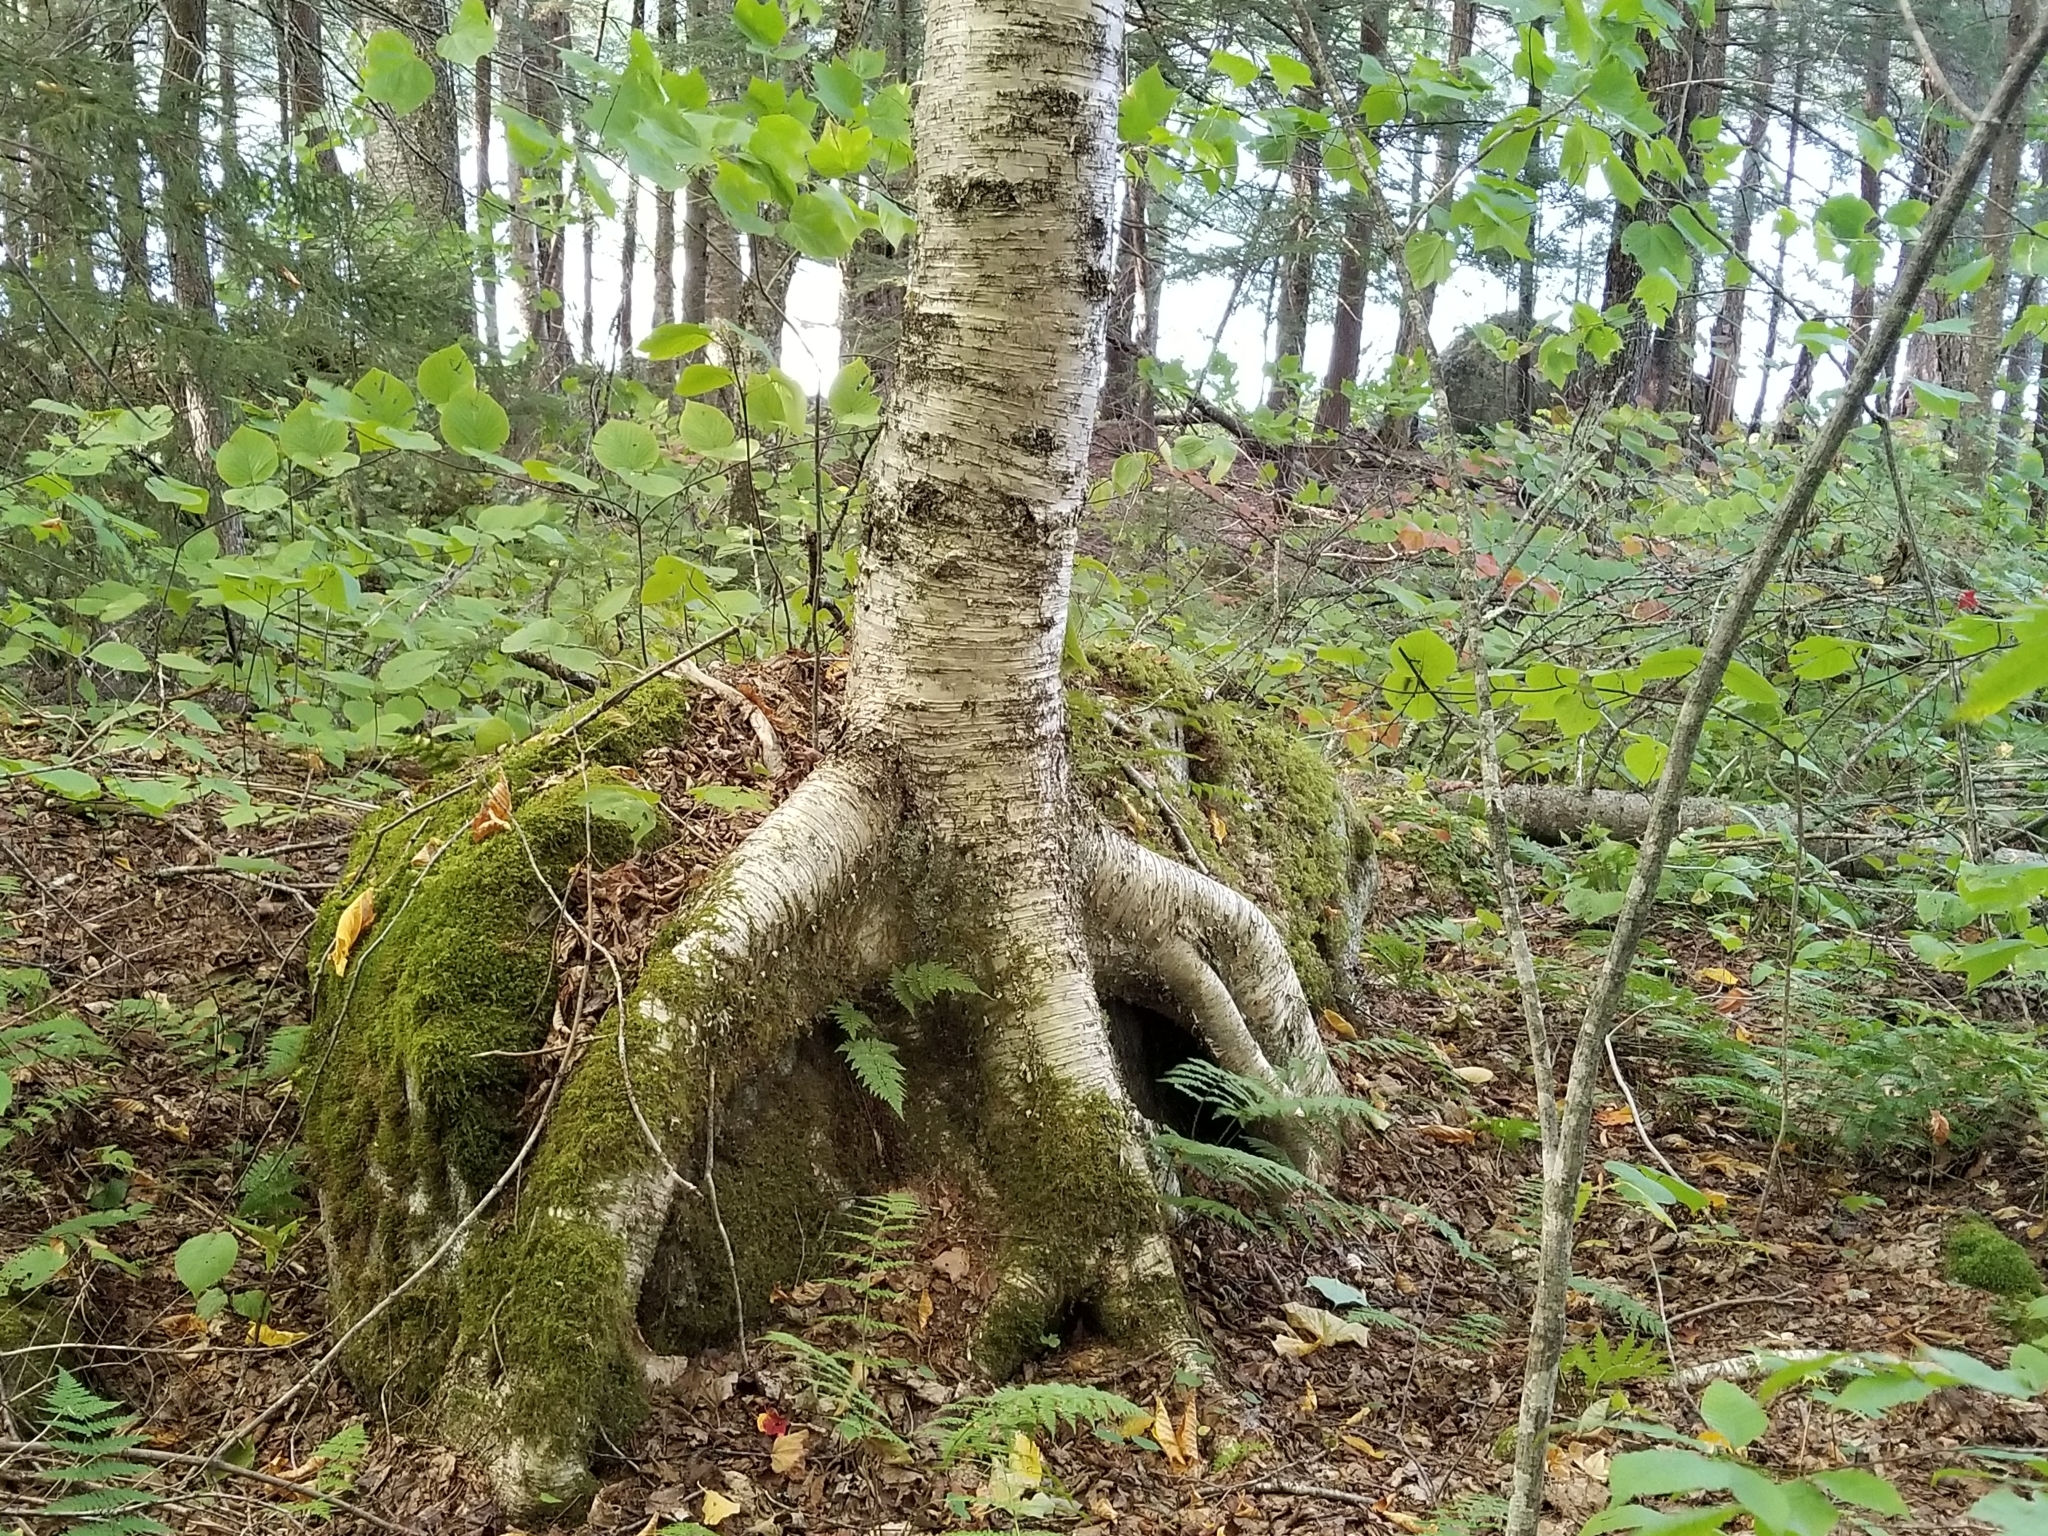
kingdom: Plantae
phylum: Tracheophyta
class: Magnoliopsida
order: Fagales
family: Betulaceae
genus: Betula
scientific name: Betula alleghaniensis
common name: Yellow birch
